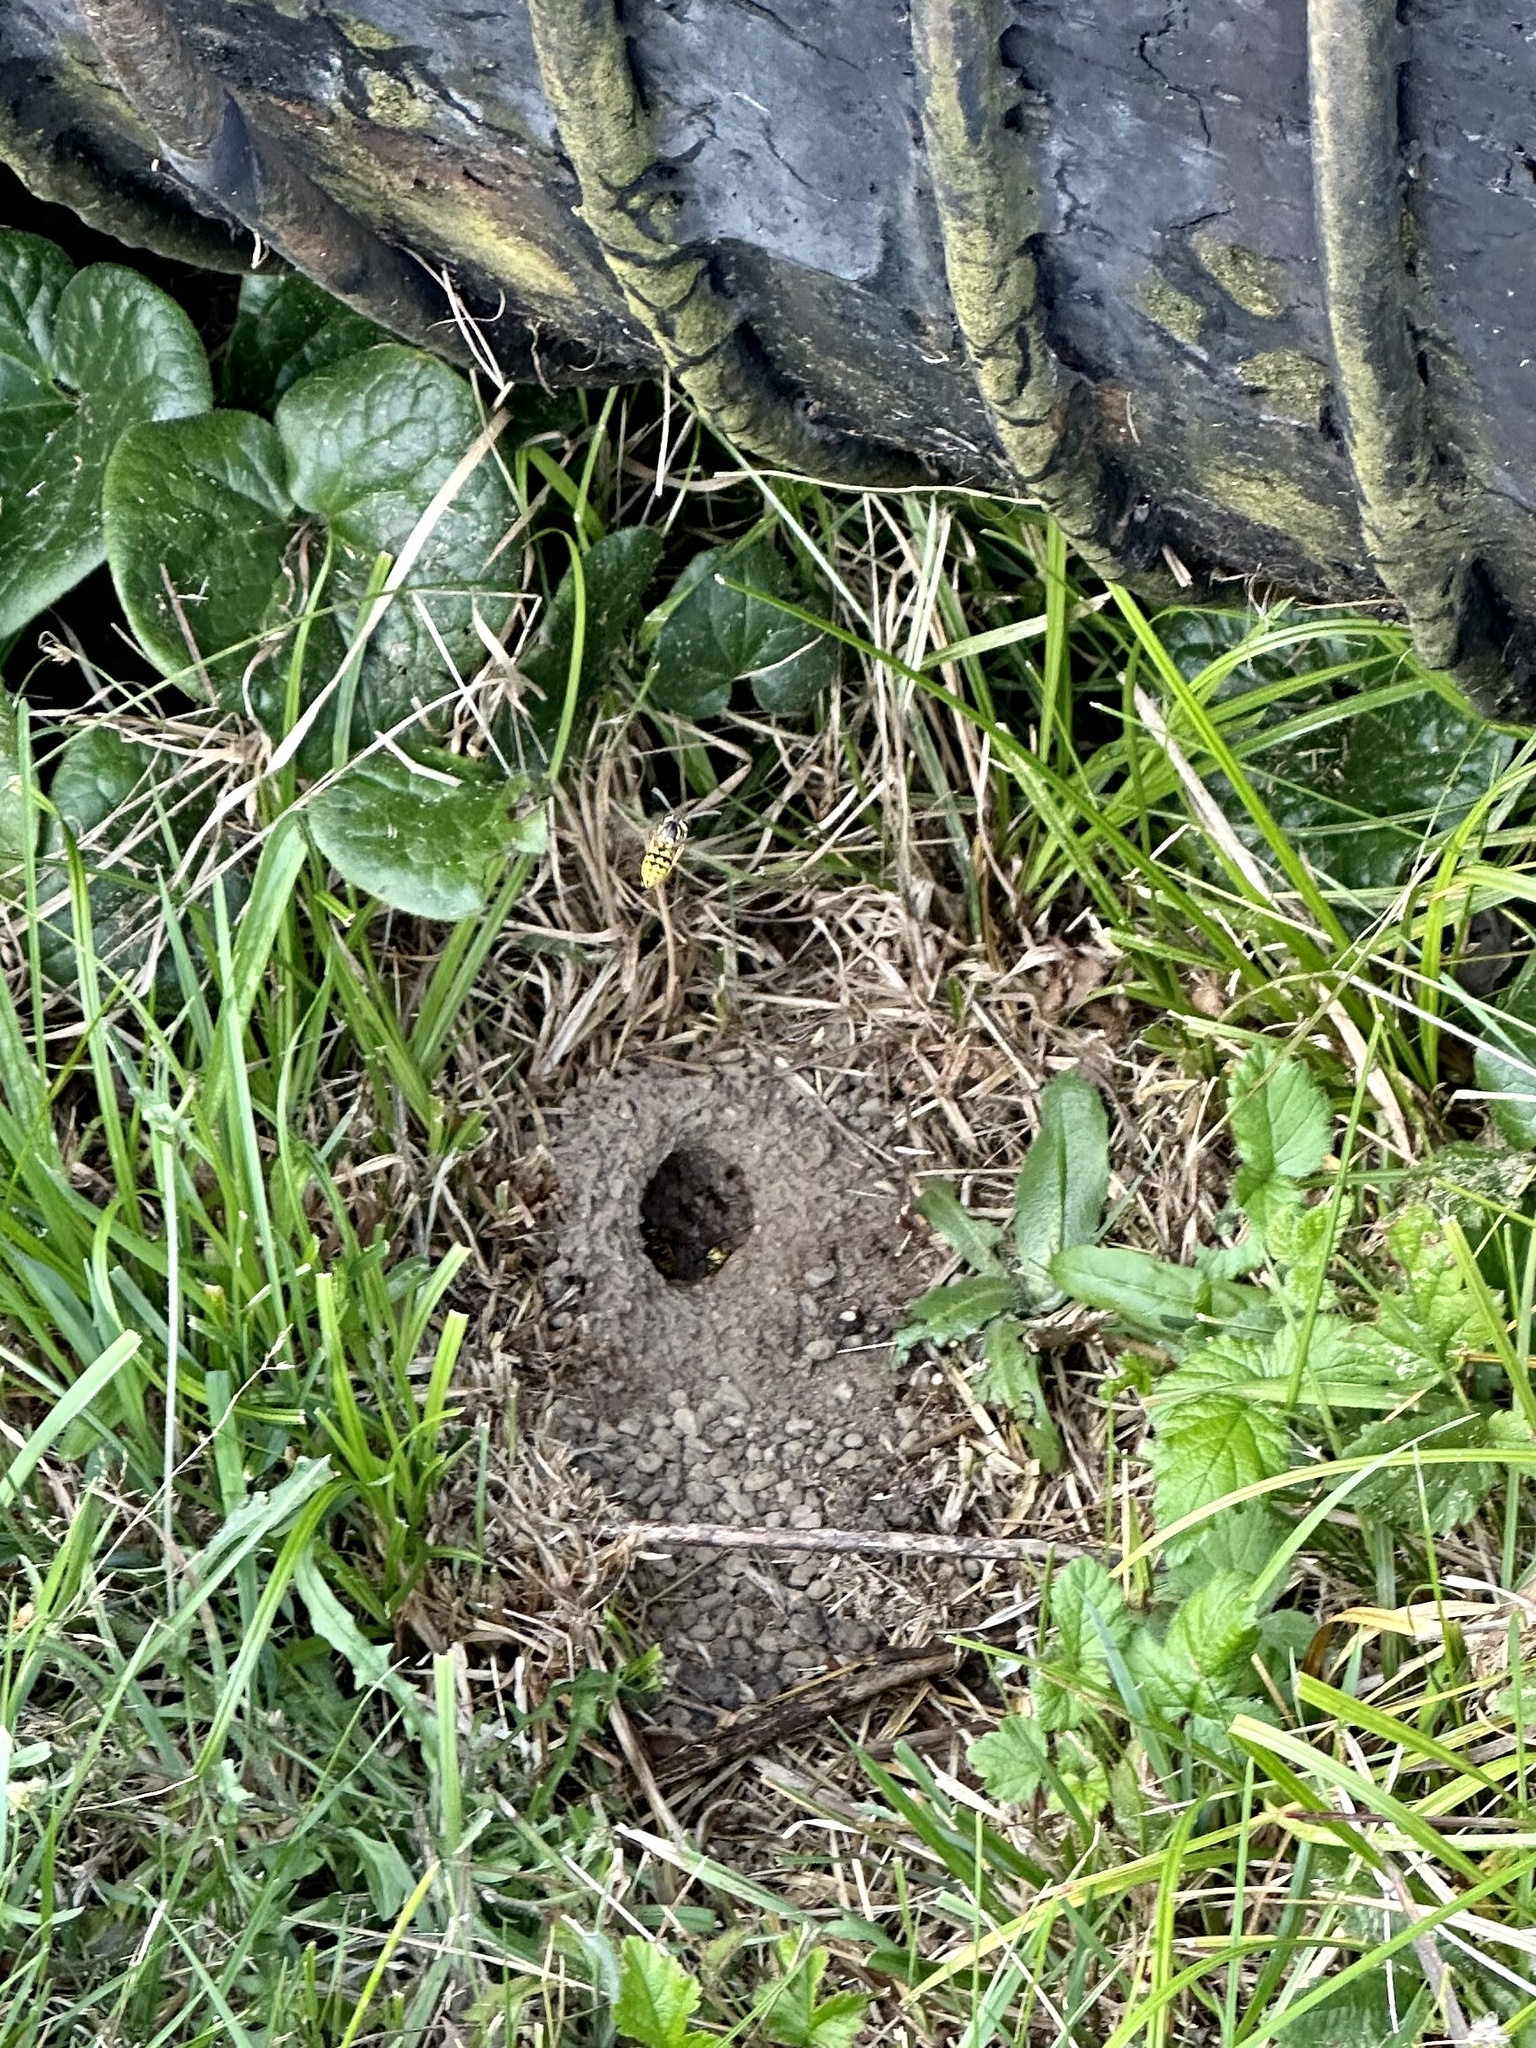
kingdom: Animalia
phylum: Arthropoda
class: Insecta
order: Hymenoptera
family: Vespidae
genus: Vespula
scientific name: Vespula pensylvanica
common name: Western yellowjacket
